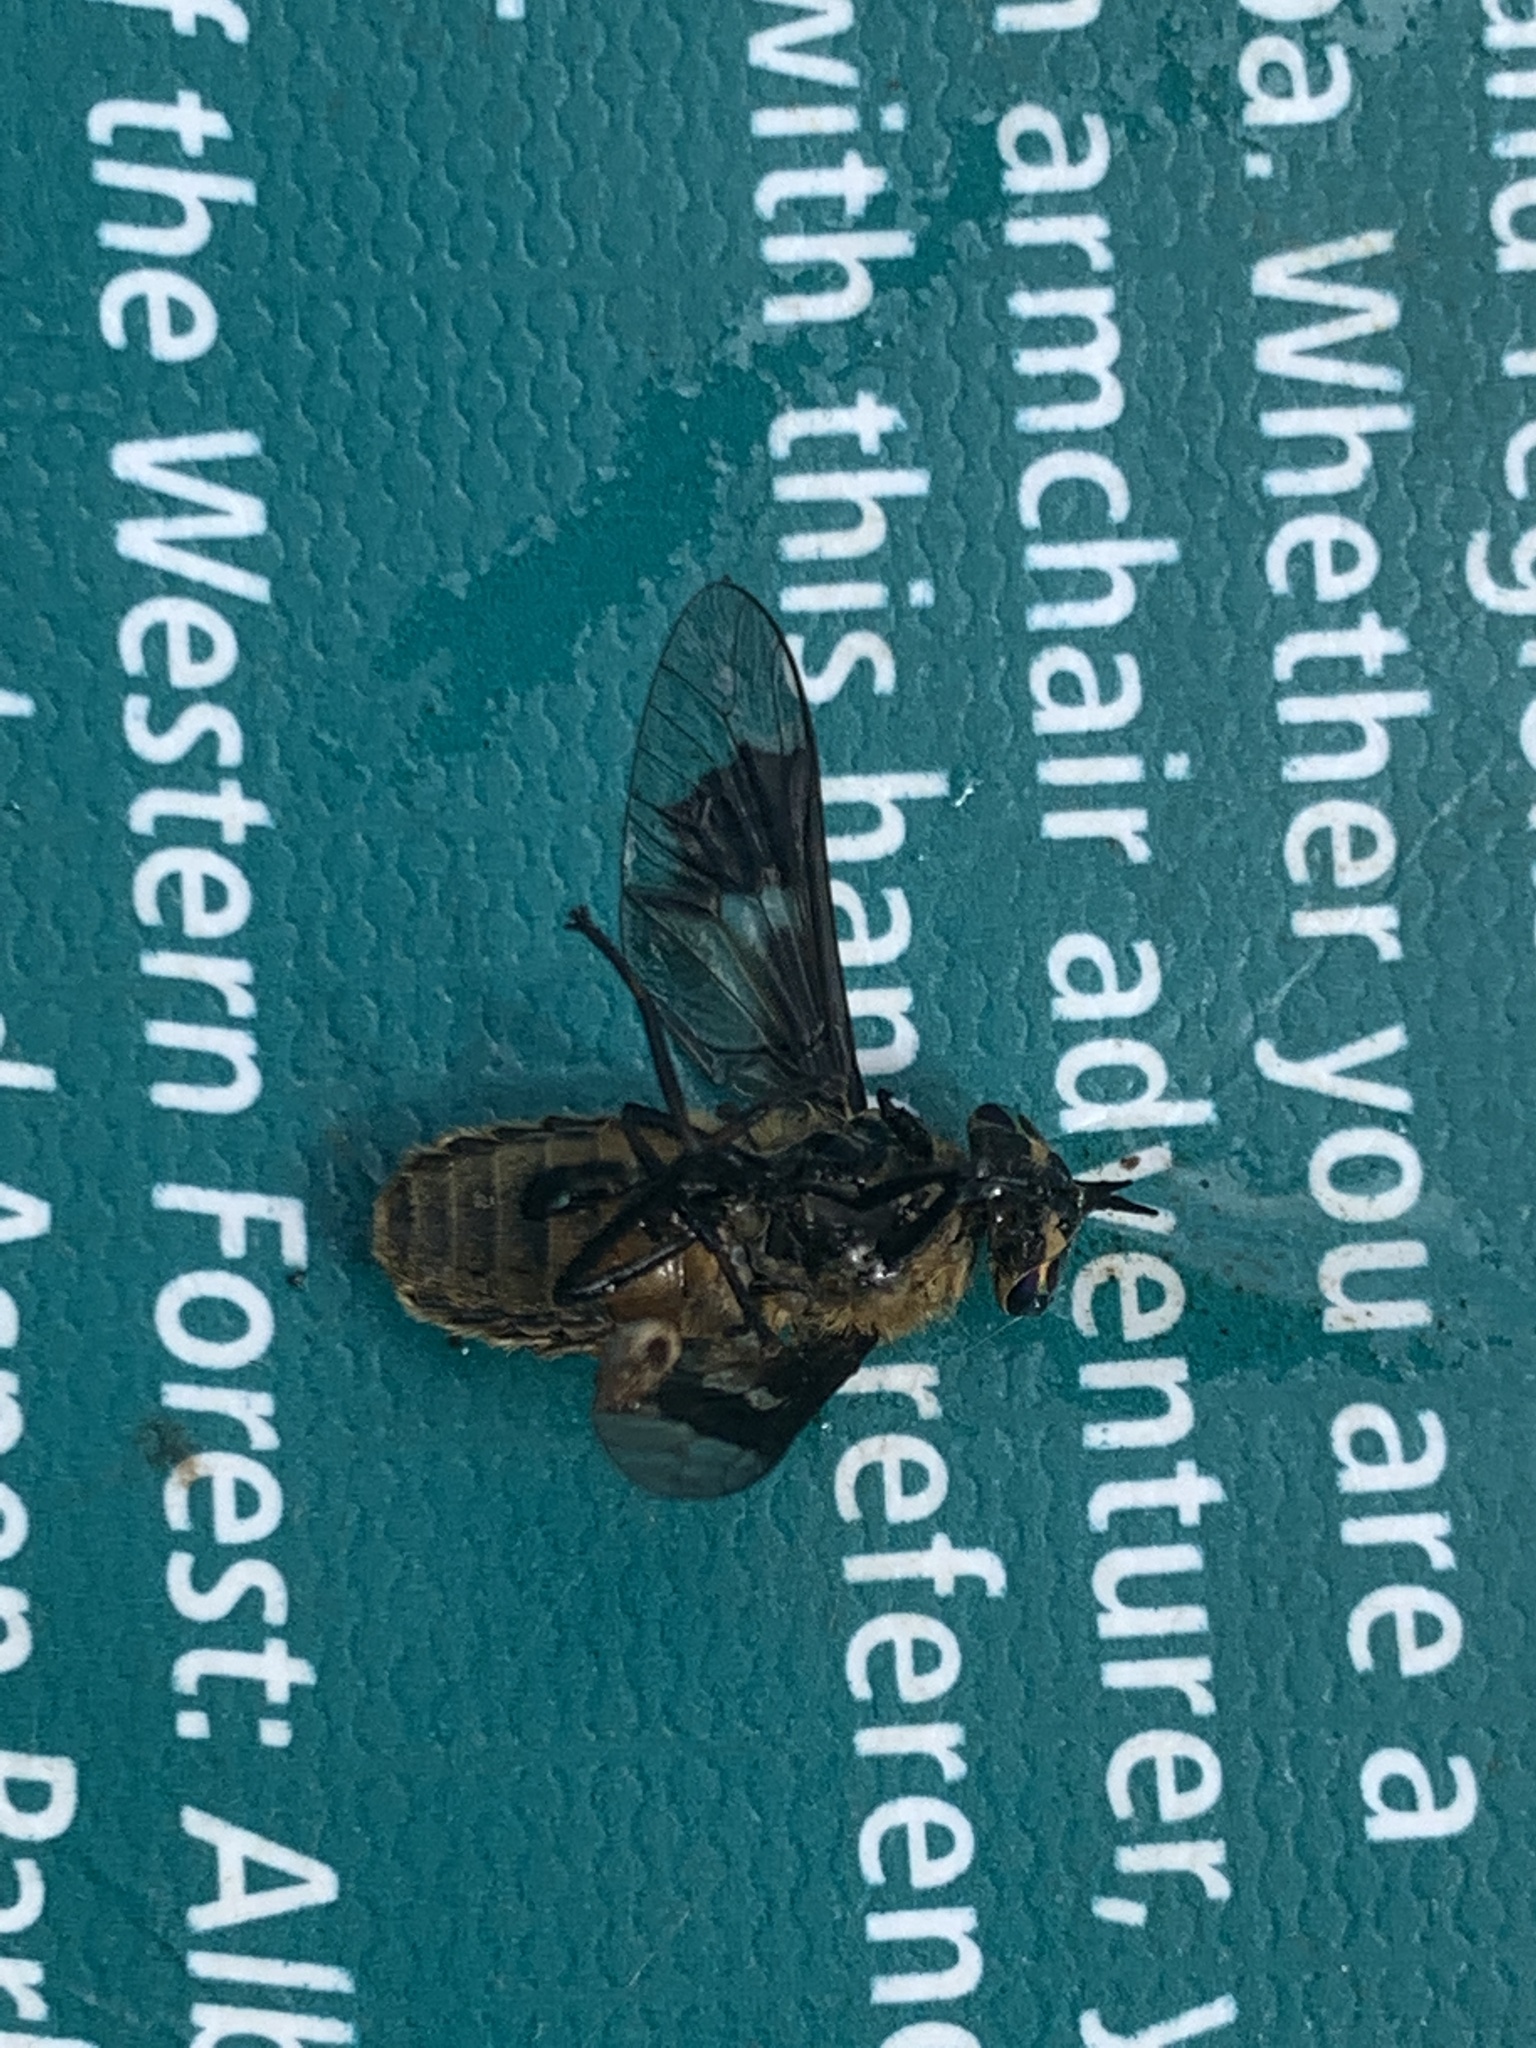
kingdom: Animalia
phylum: Arthropoda
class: Insecta
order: Diptera
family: Tabanidae
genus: Chrysops
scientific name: Chrysops excitans
